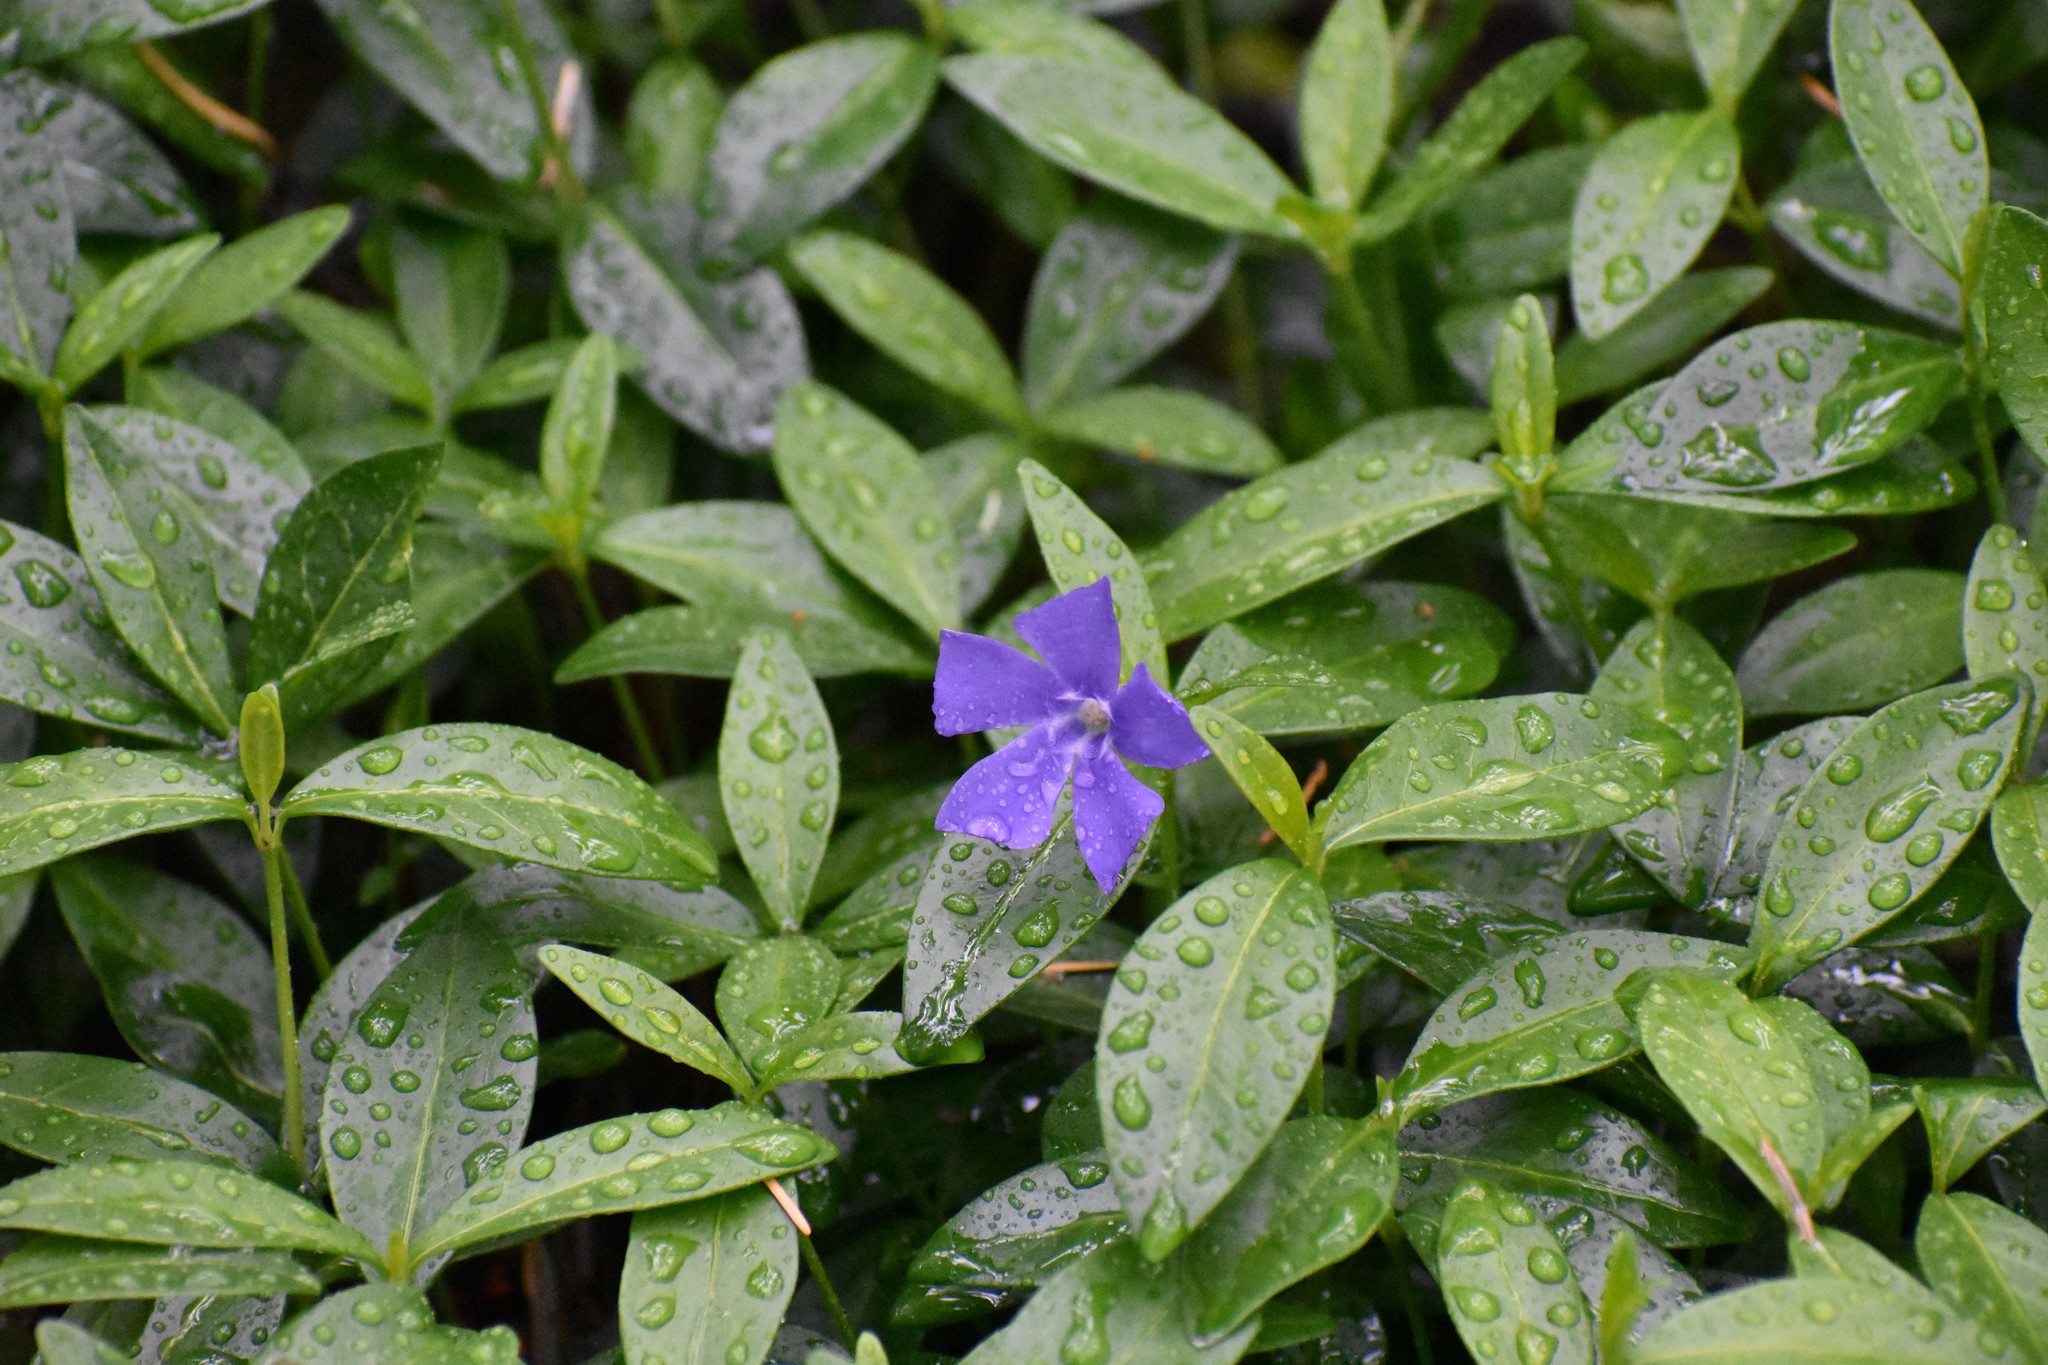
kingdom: Plantae
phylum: Tracheophyta
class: Magnoliopsida
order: Gentianales
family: Apocynaceae
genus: Vinca
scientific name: Vinca minor
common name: Lesser periwinkle
